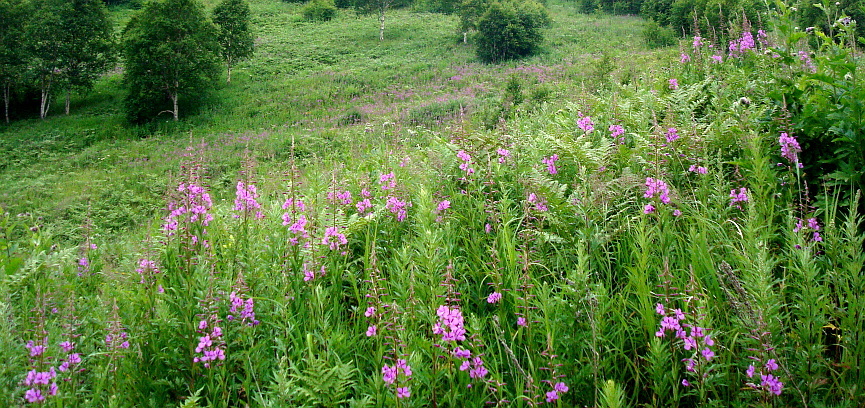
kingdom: Plantae
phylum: Tracheophyta
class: Magnoliopsida
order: Myrtales
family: Onagraceae
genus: Chamaenerion
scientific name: Chamaenerion angustifolium
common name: Fireweed
